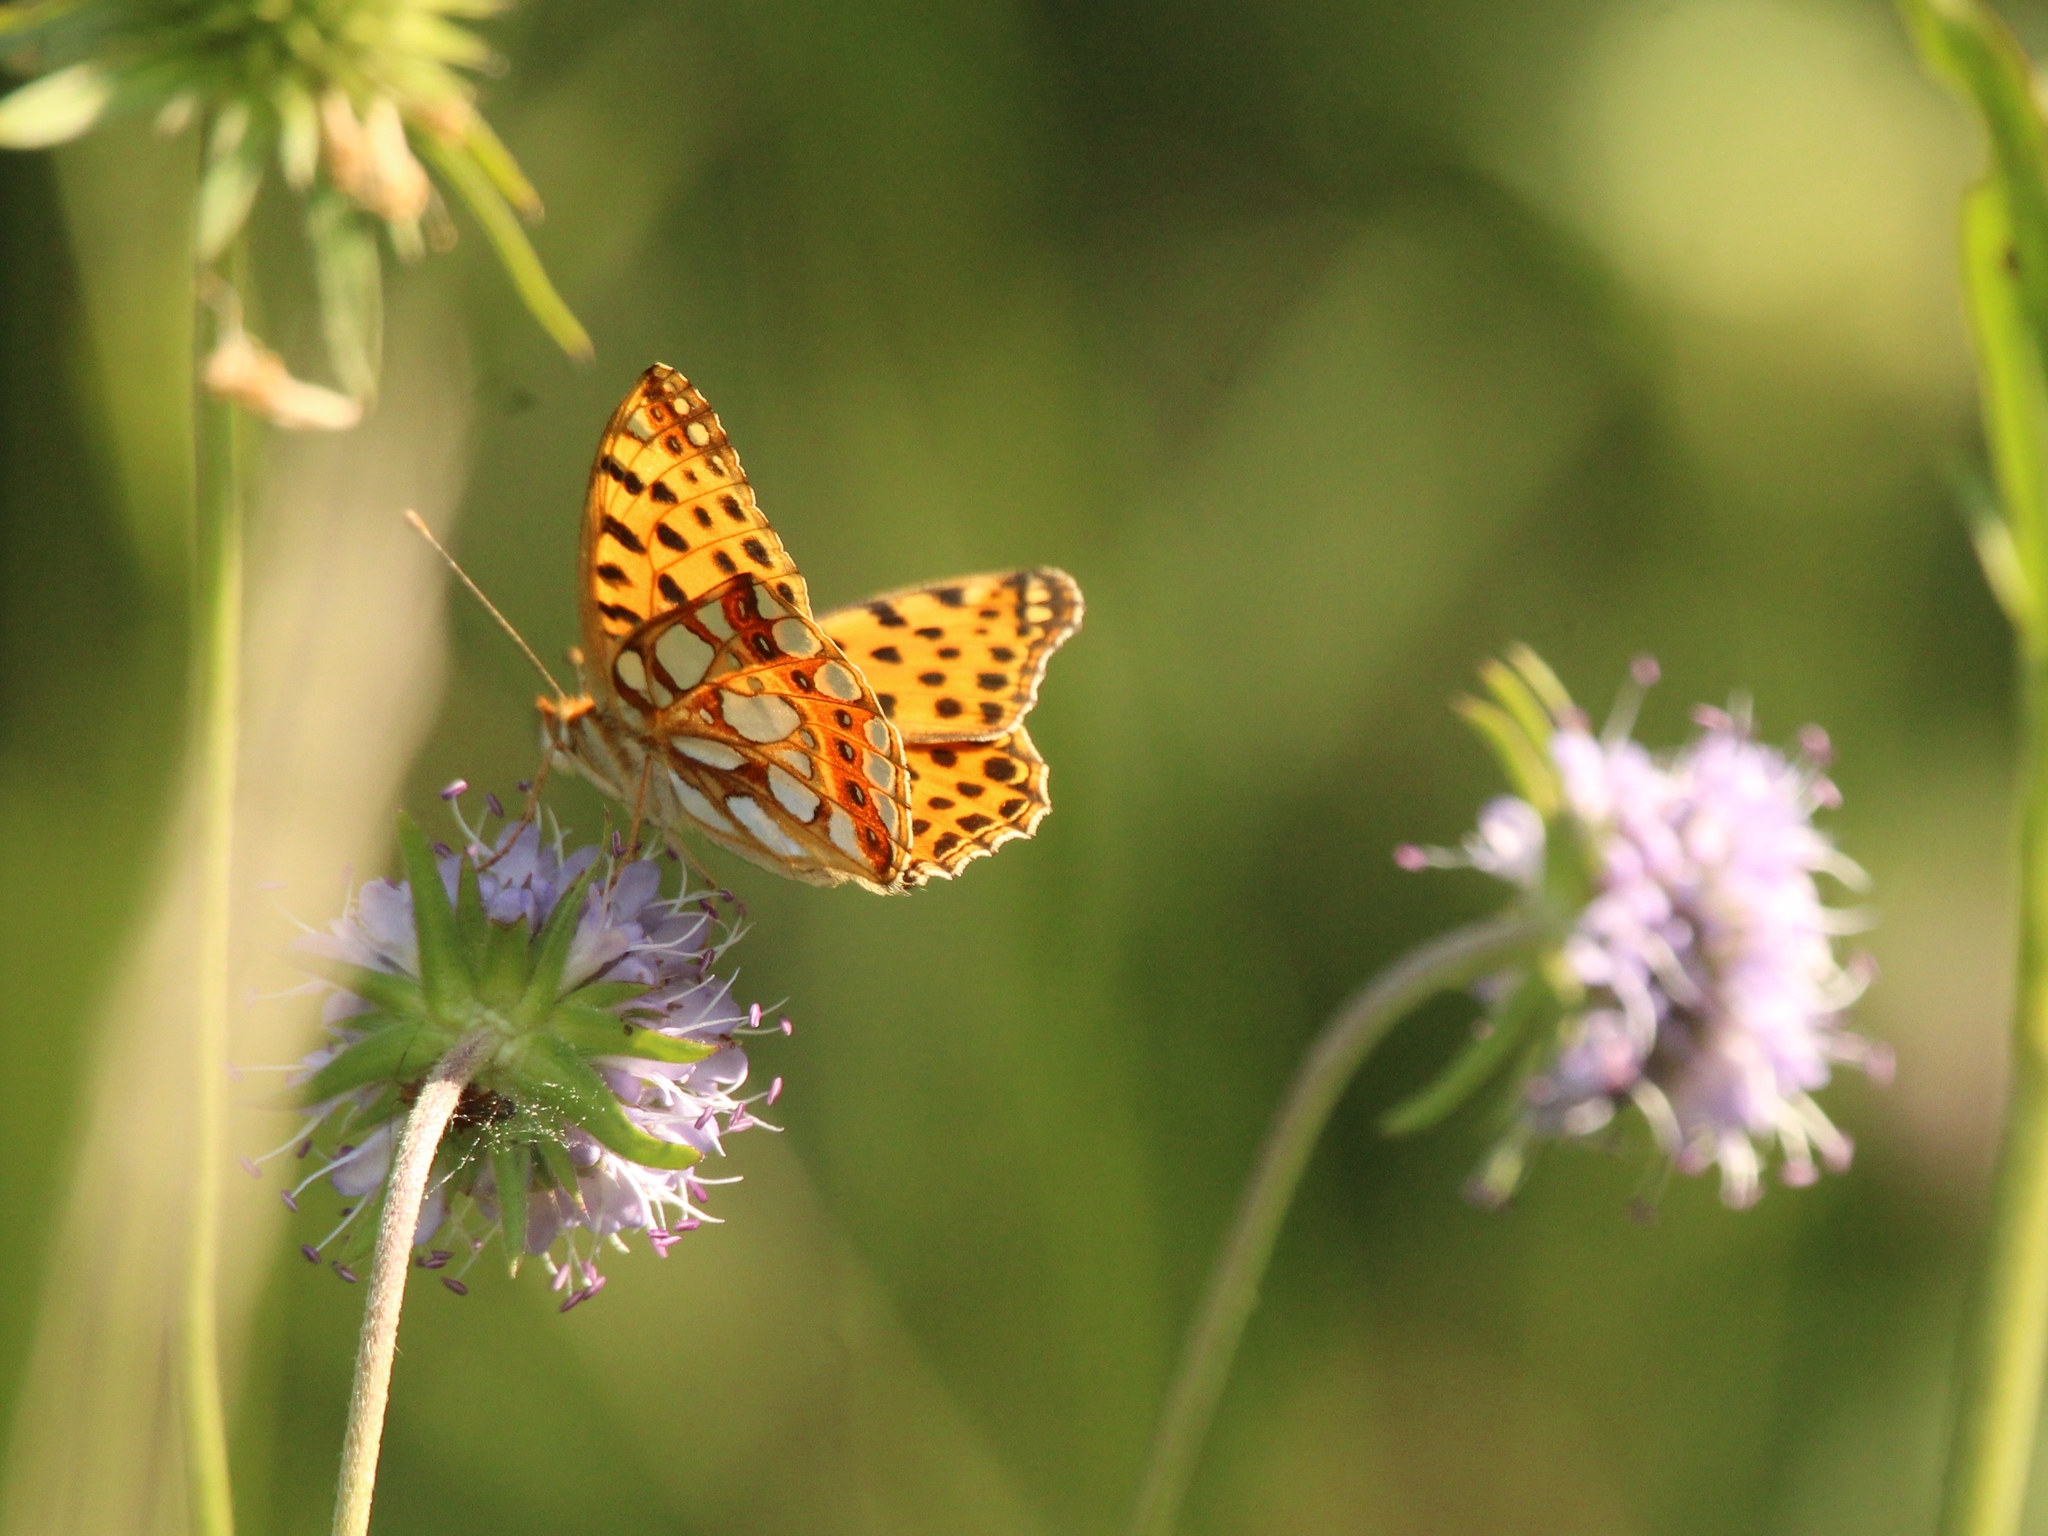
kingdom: Animalia
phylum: Arthropoda
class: Insecta
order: Lepidoptera
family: Nymphalidae
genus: Issoria
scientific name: Issoria lathonia
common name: Queen of spain fritillary
